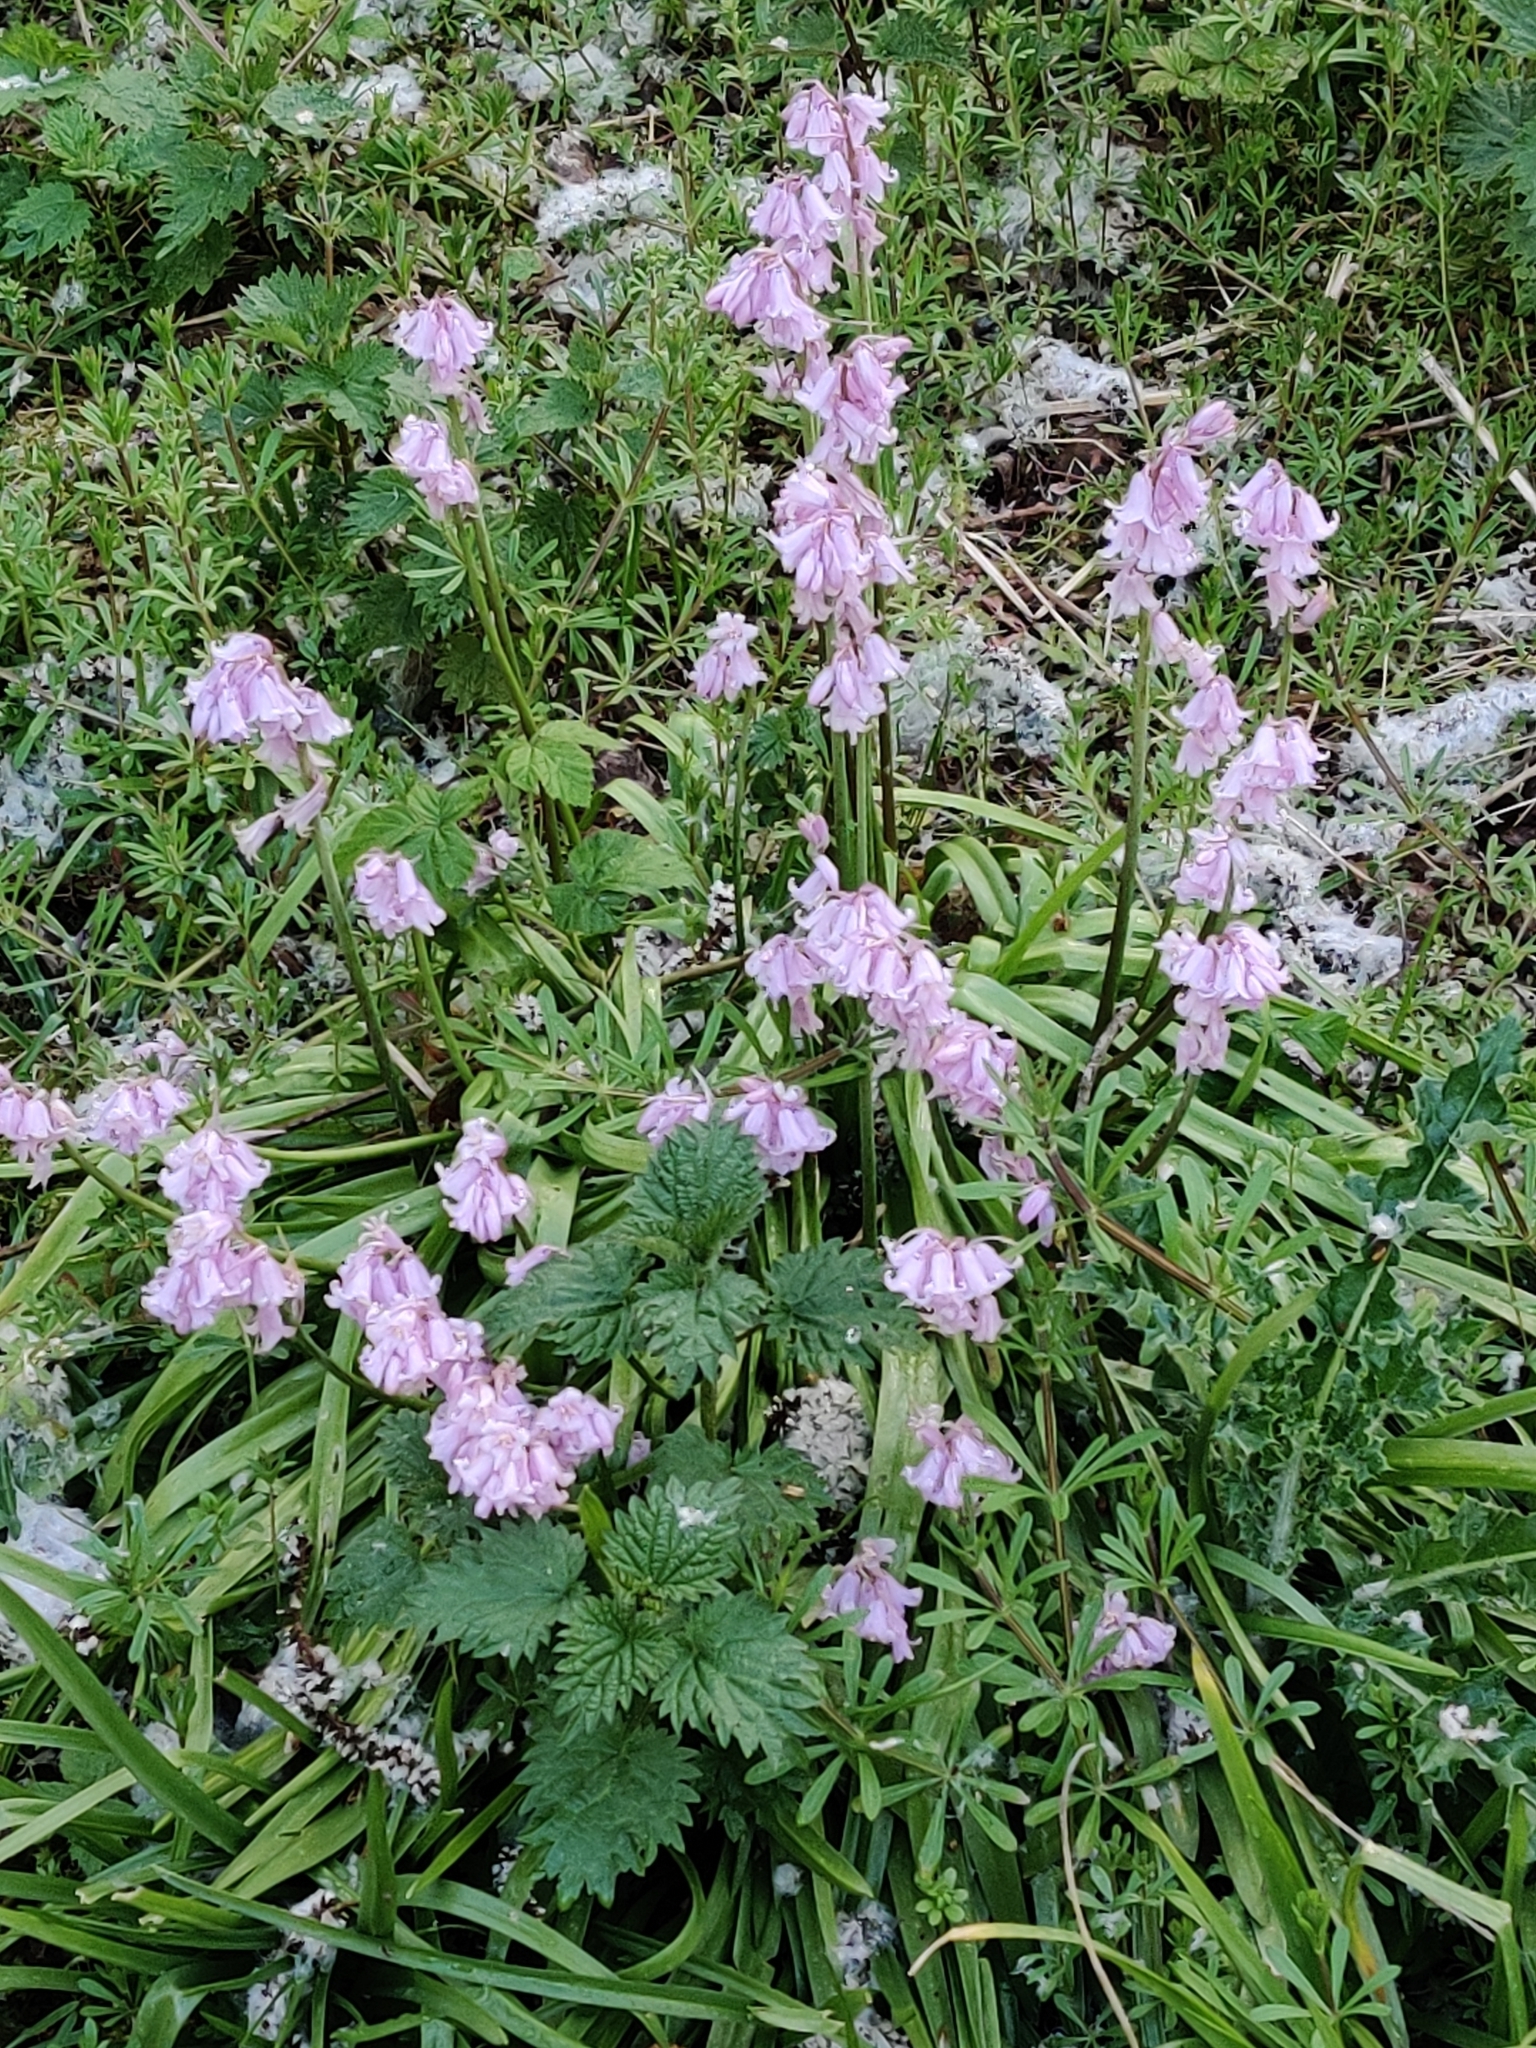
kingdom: Plantae
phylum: Tracheophyta
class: Liliopsida
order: Asparagales
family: Asparagaceae
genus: Hyacinthoides
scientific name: Hyacinthoides hispanica
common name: Spanish bluebell
